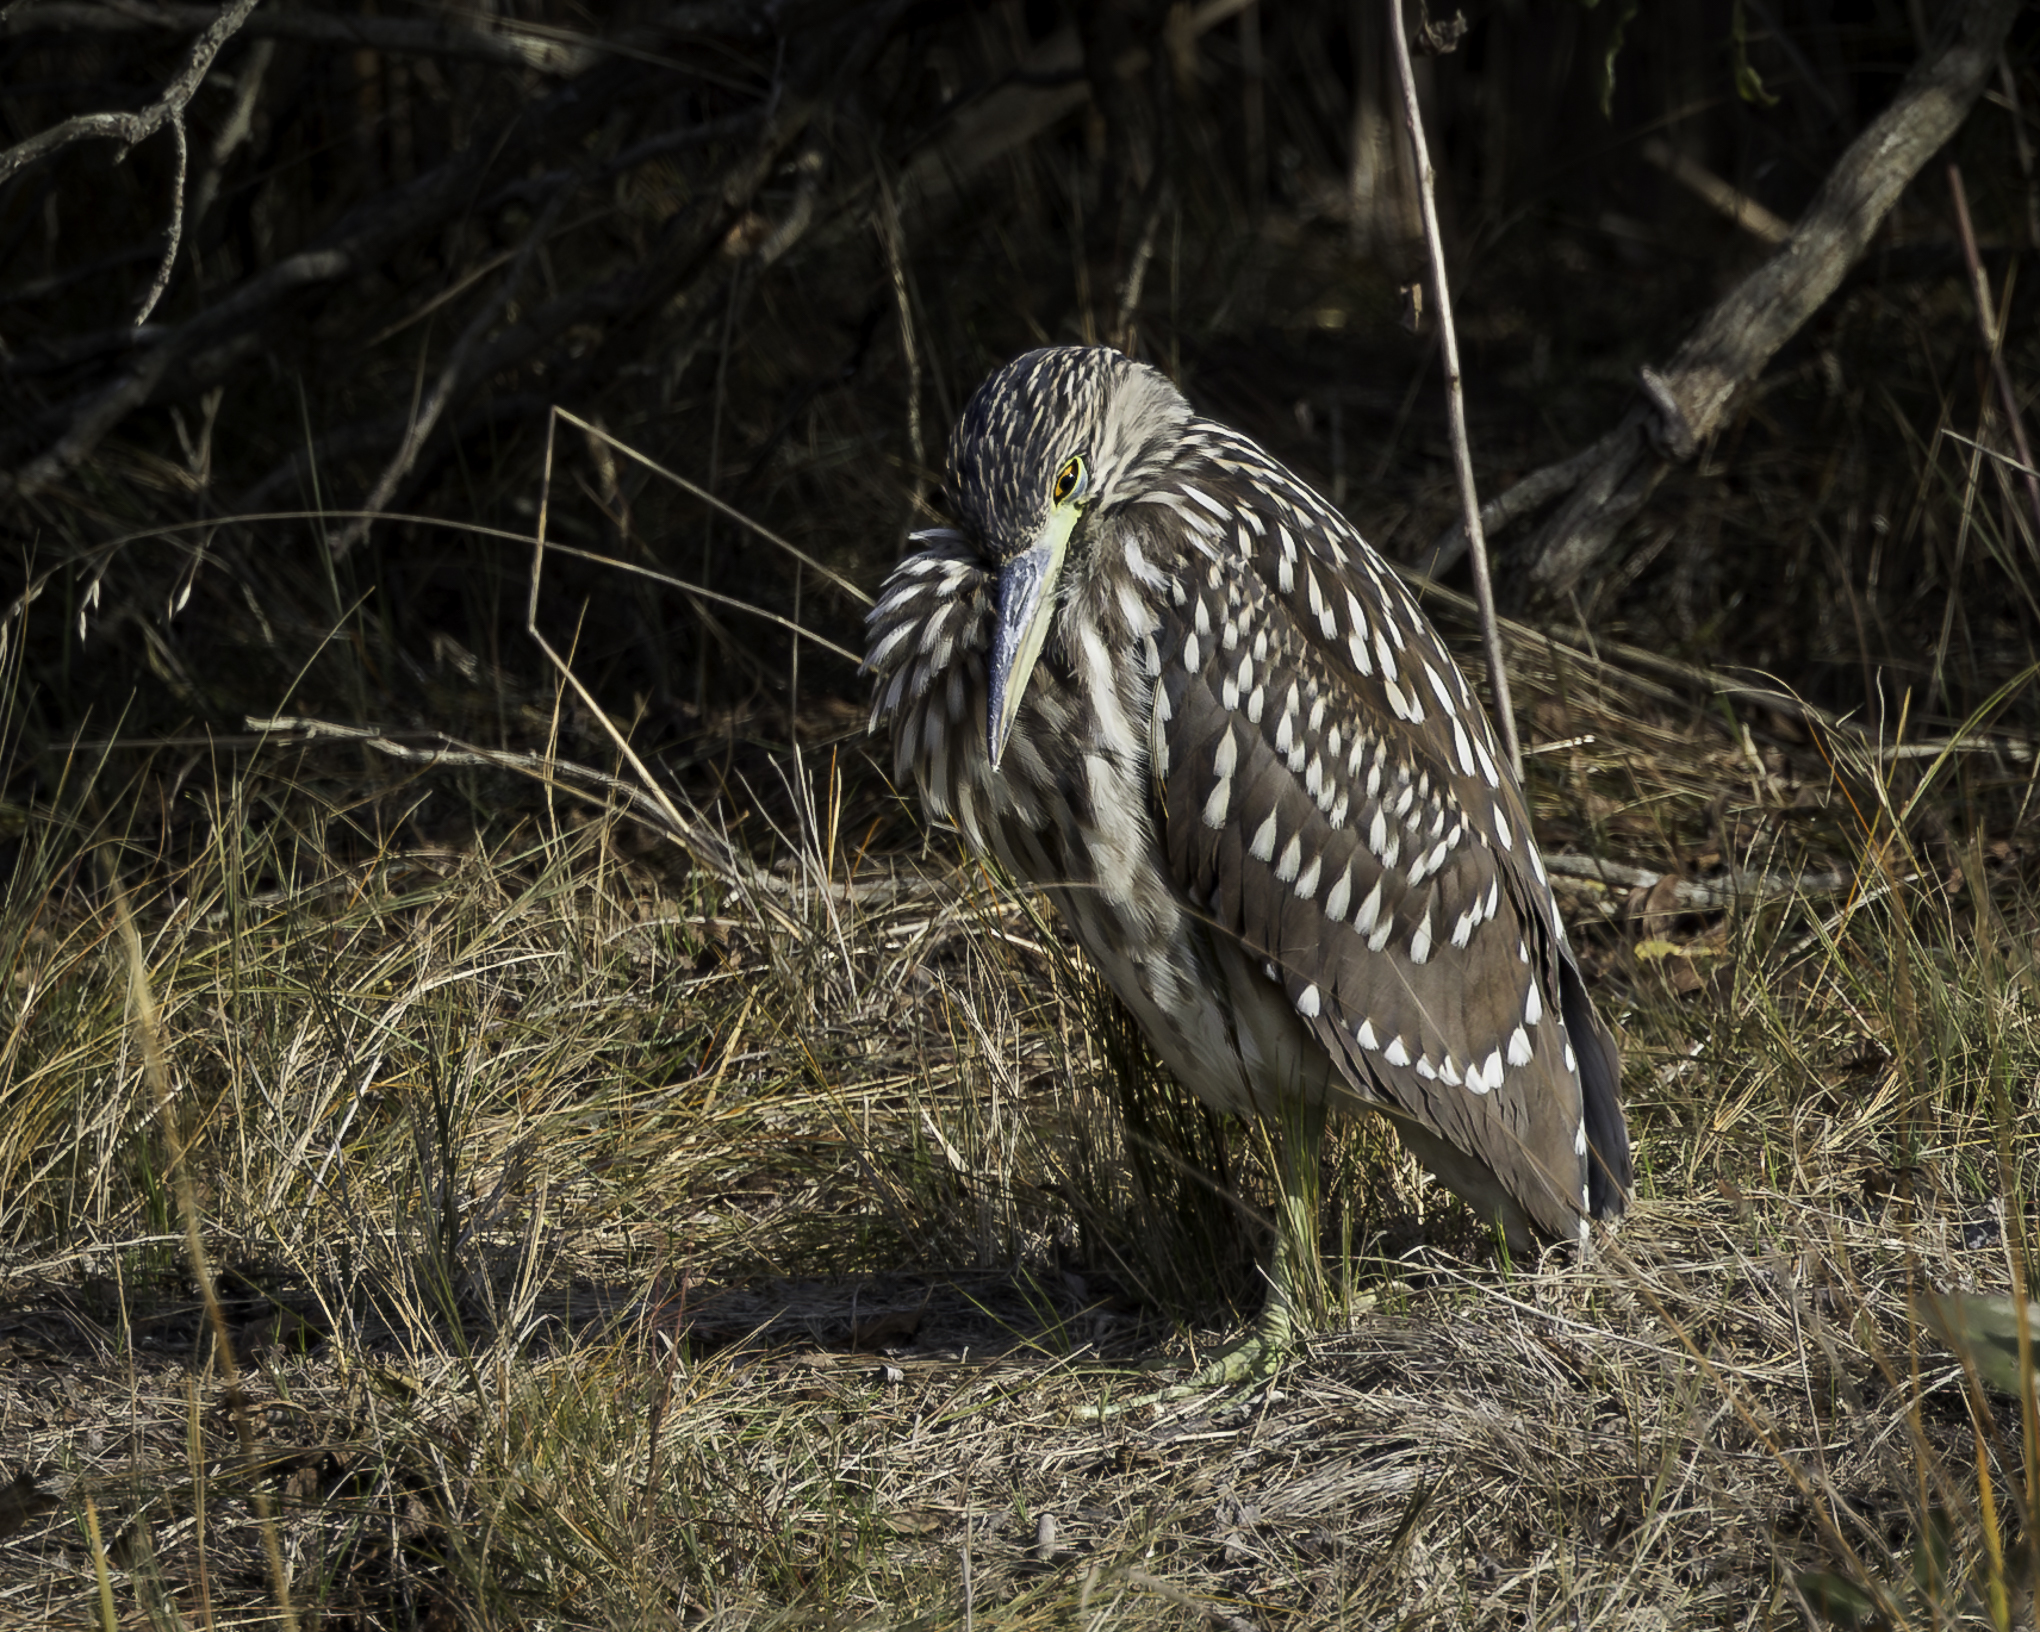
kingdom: Animalia
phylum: Chordata
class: Aves
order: Pelecaniformes
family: Ardeidae
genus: Nycticorax
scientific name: Nycticorax nycticorax
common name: Black-crowned night heron
